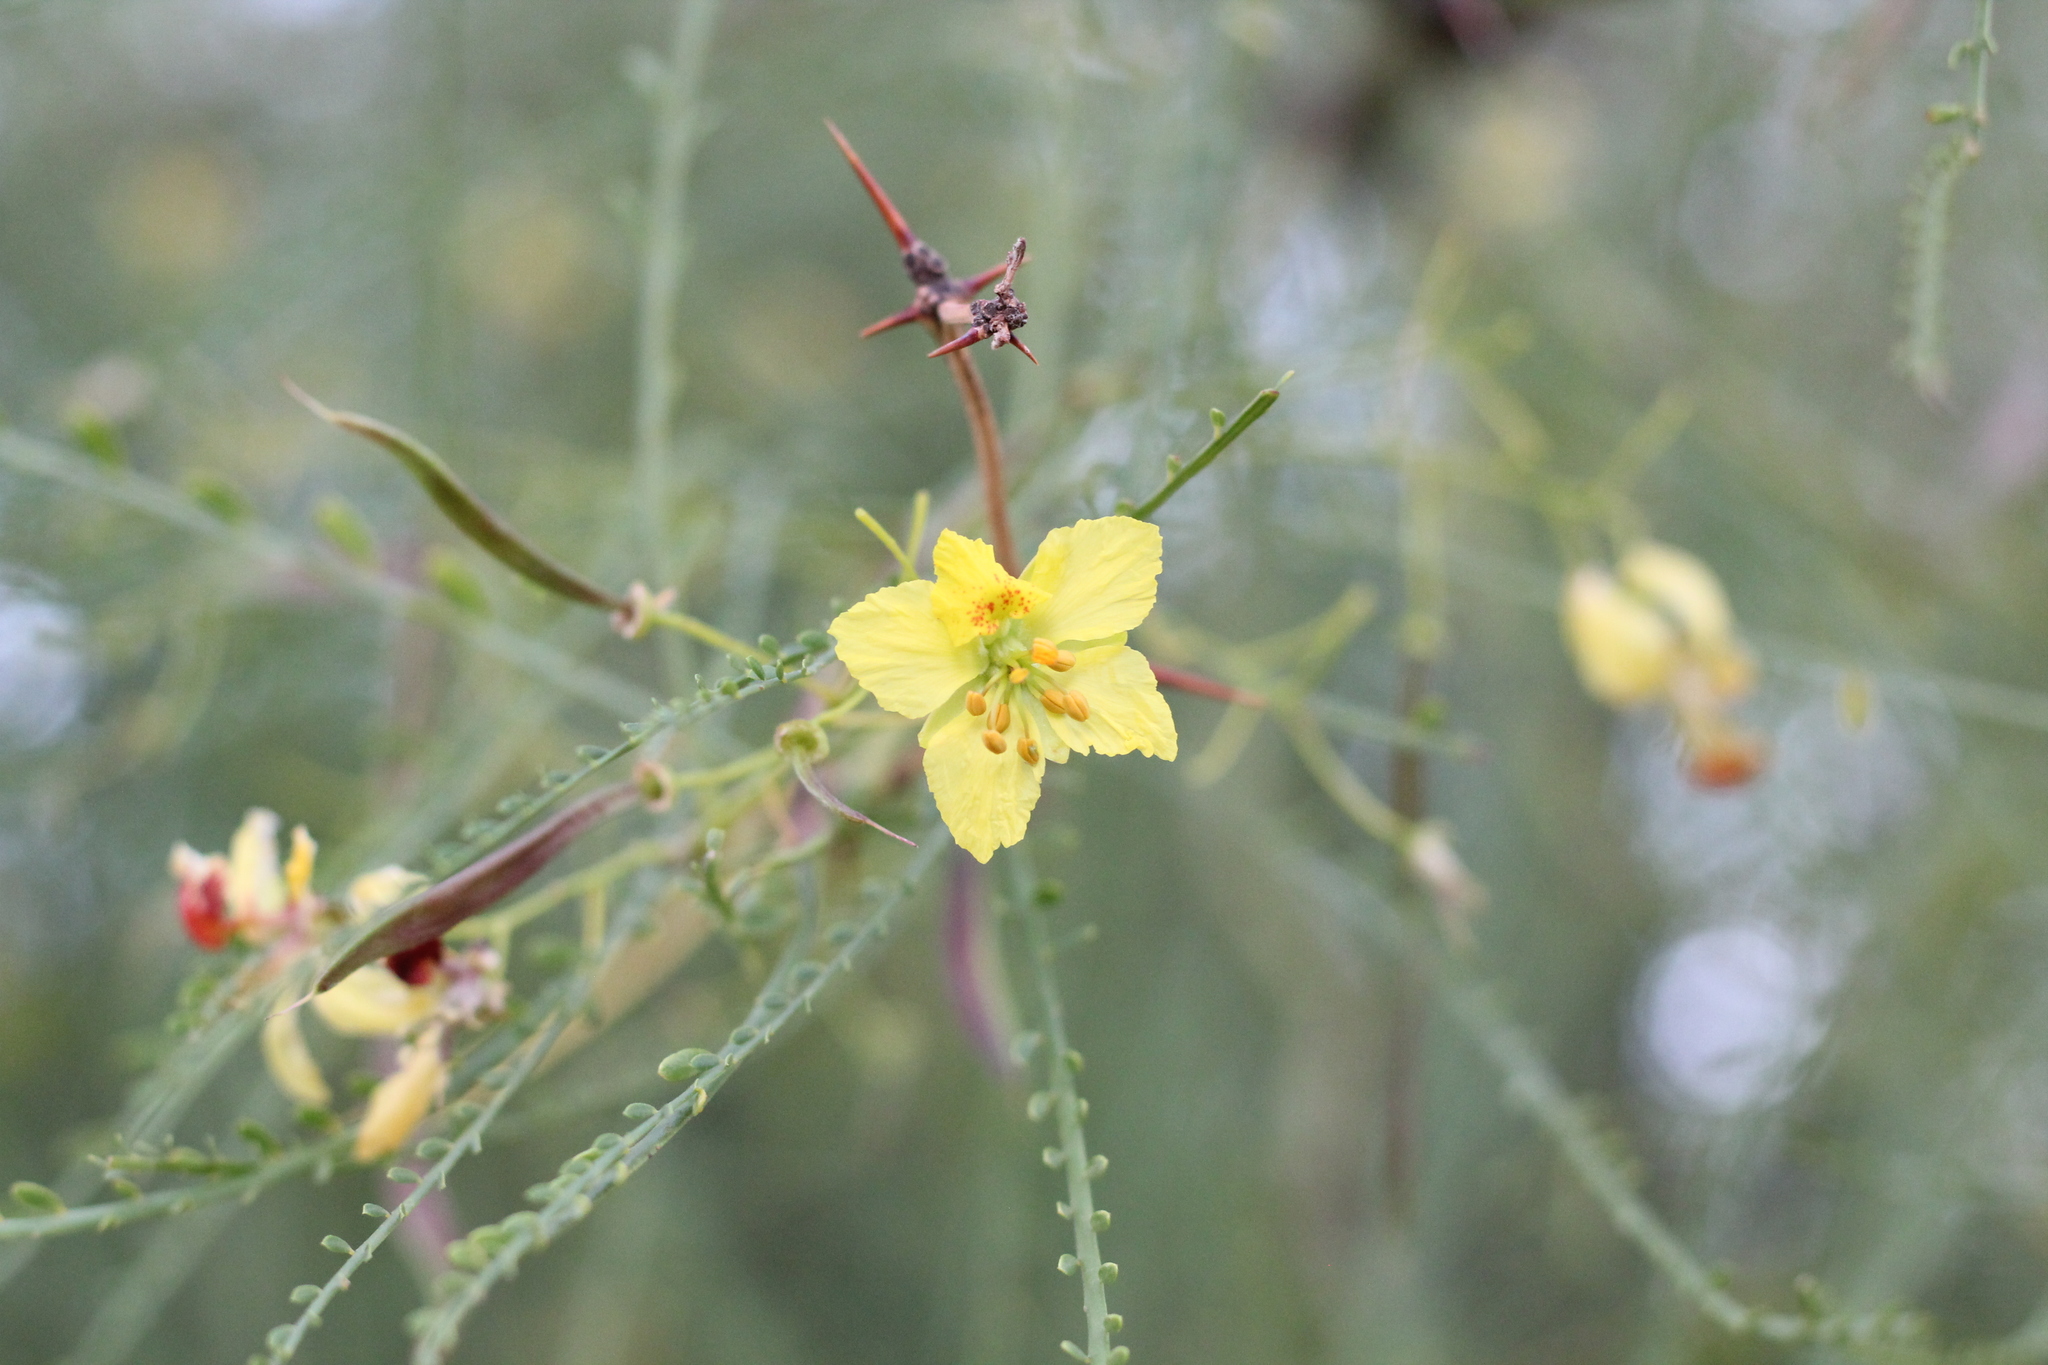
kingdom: Plantae
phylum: Tracheophyta
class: Magnoliopsida
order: Fabales
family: Fabaceae
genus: Parkinsonia
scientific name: Parkinsonia aculeata
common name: Jerusalem thorn
